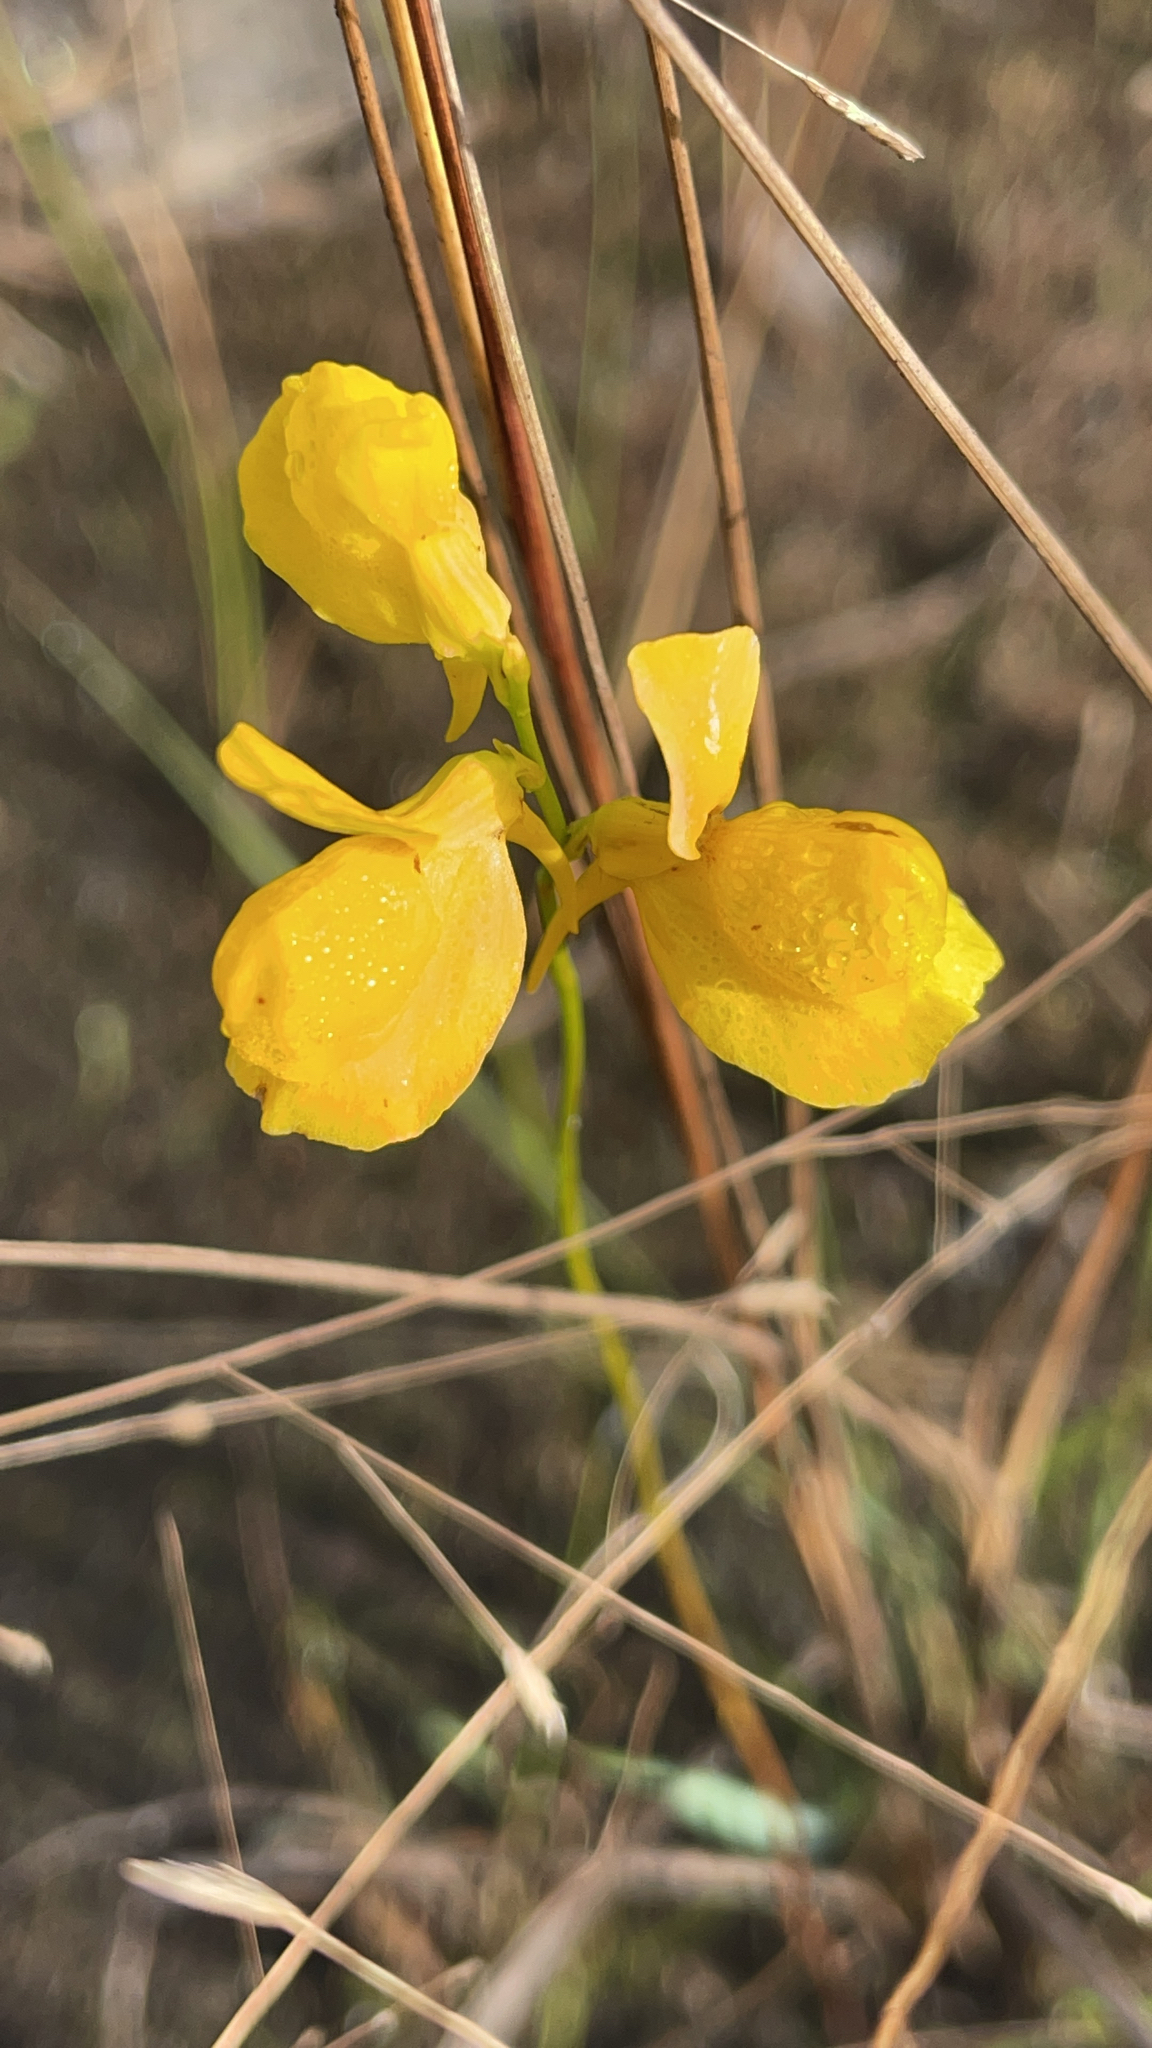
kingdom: Plantae
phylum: Tracheophyta
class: Magnoliopsida
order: Lamiales
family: Lentibulariaceae
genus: Utricularia
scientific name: Utricularia cornuta
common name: Horned bladderwort
